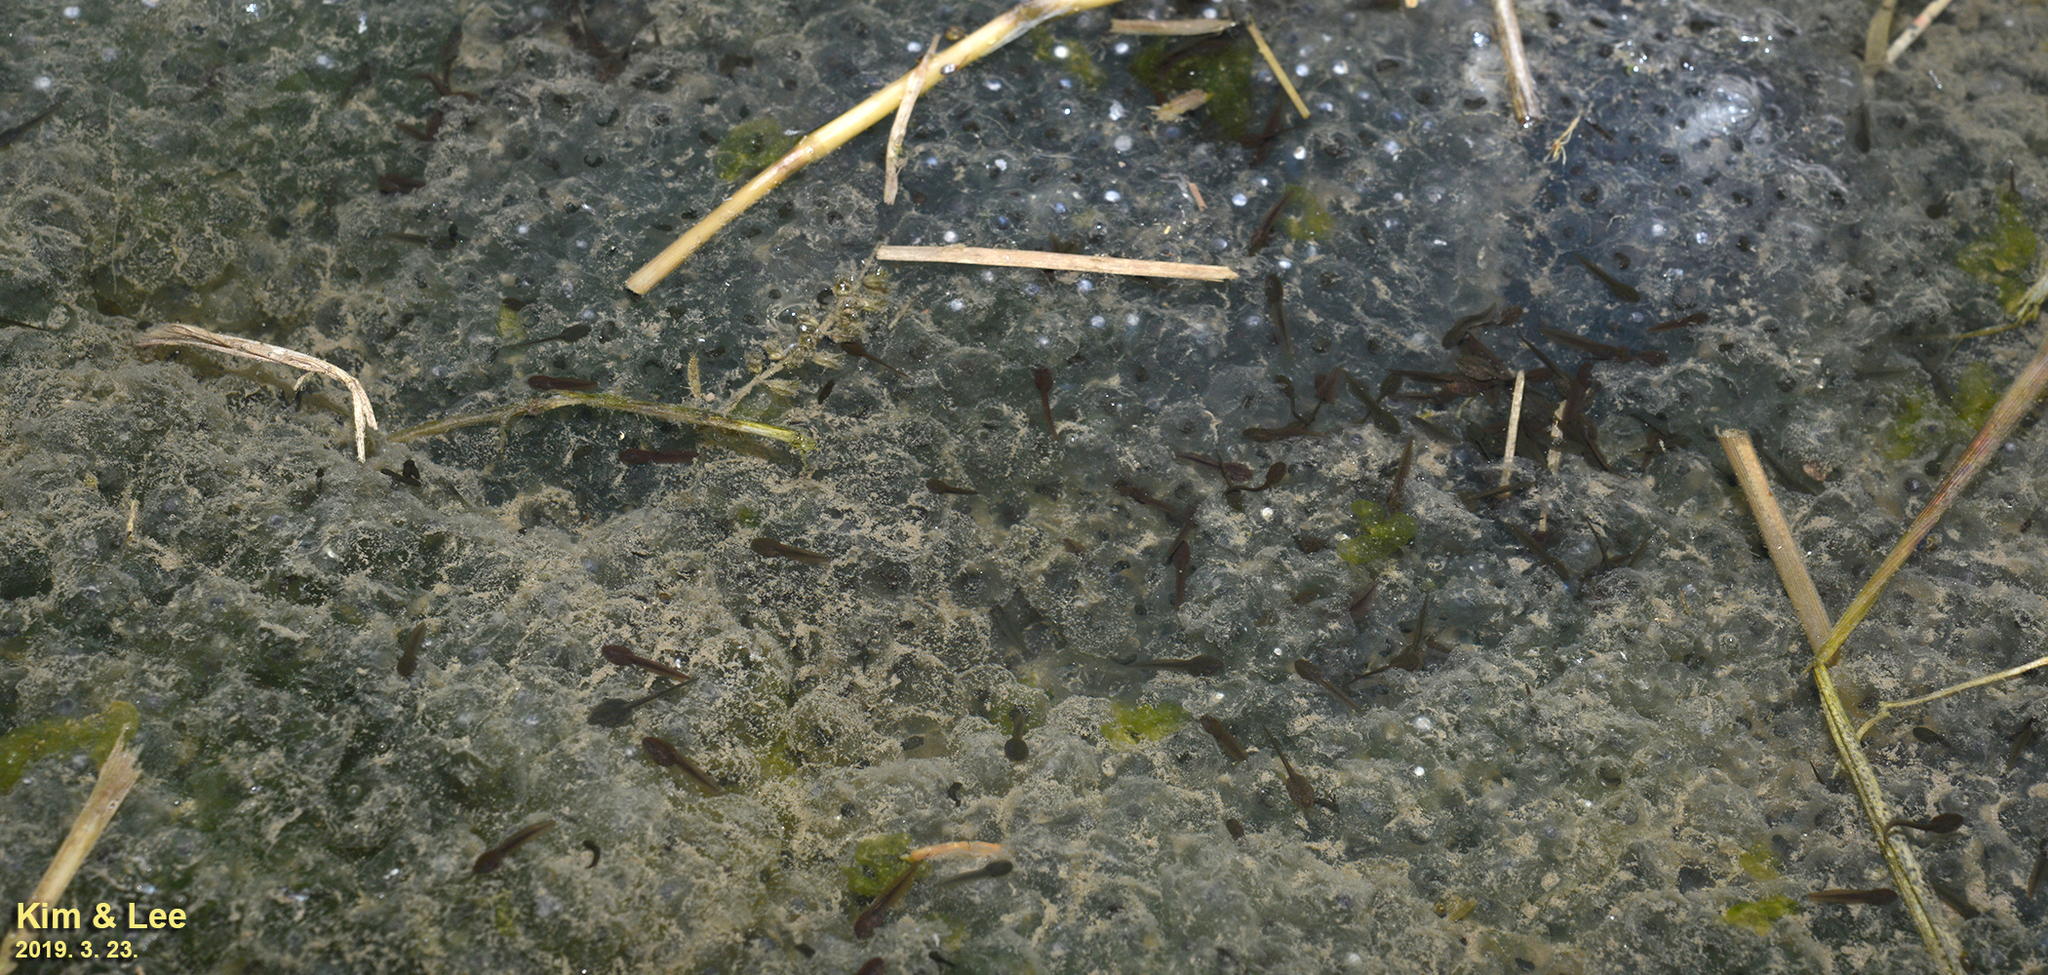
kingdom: Animalia
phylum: Chordata
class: Amphibia
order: Anura
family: Ranidae
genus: Rana
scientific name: Rana uenoi
